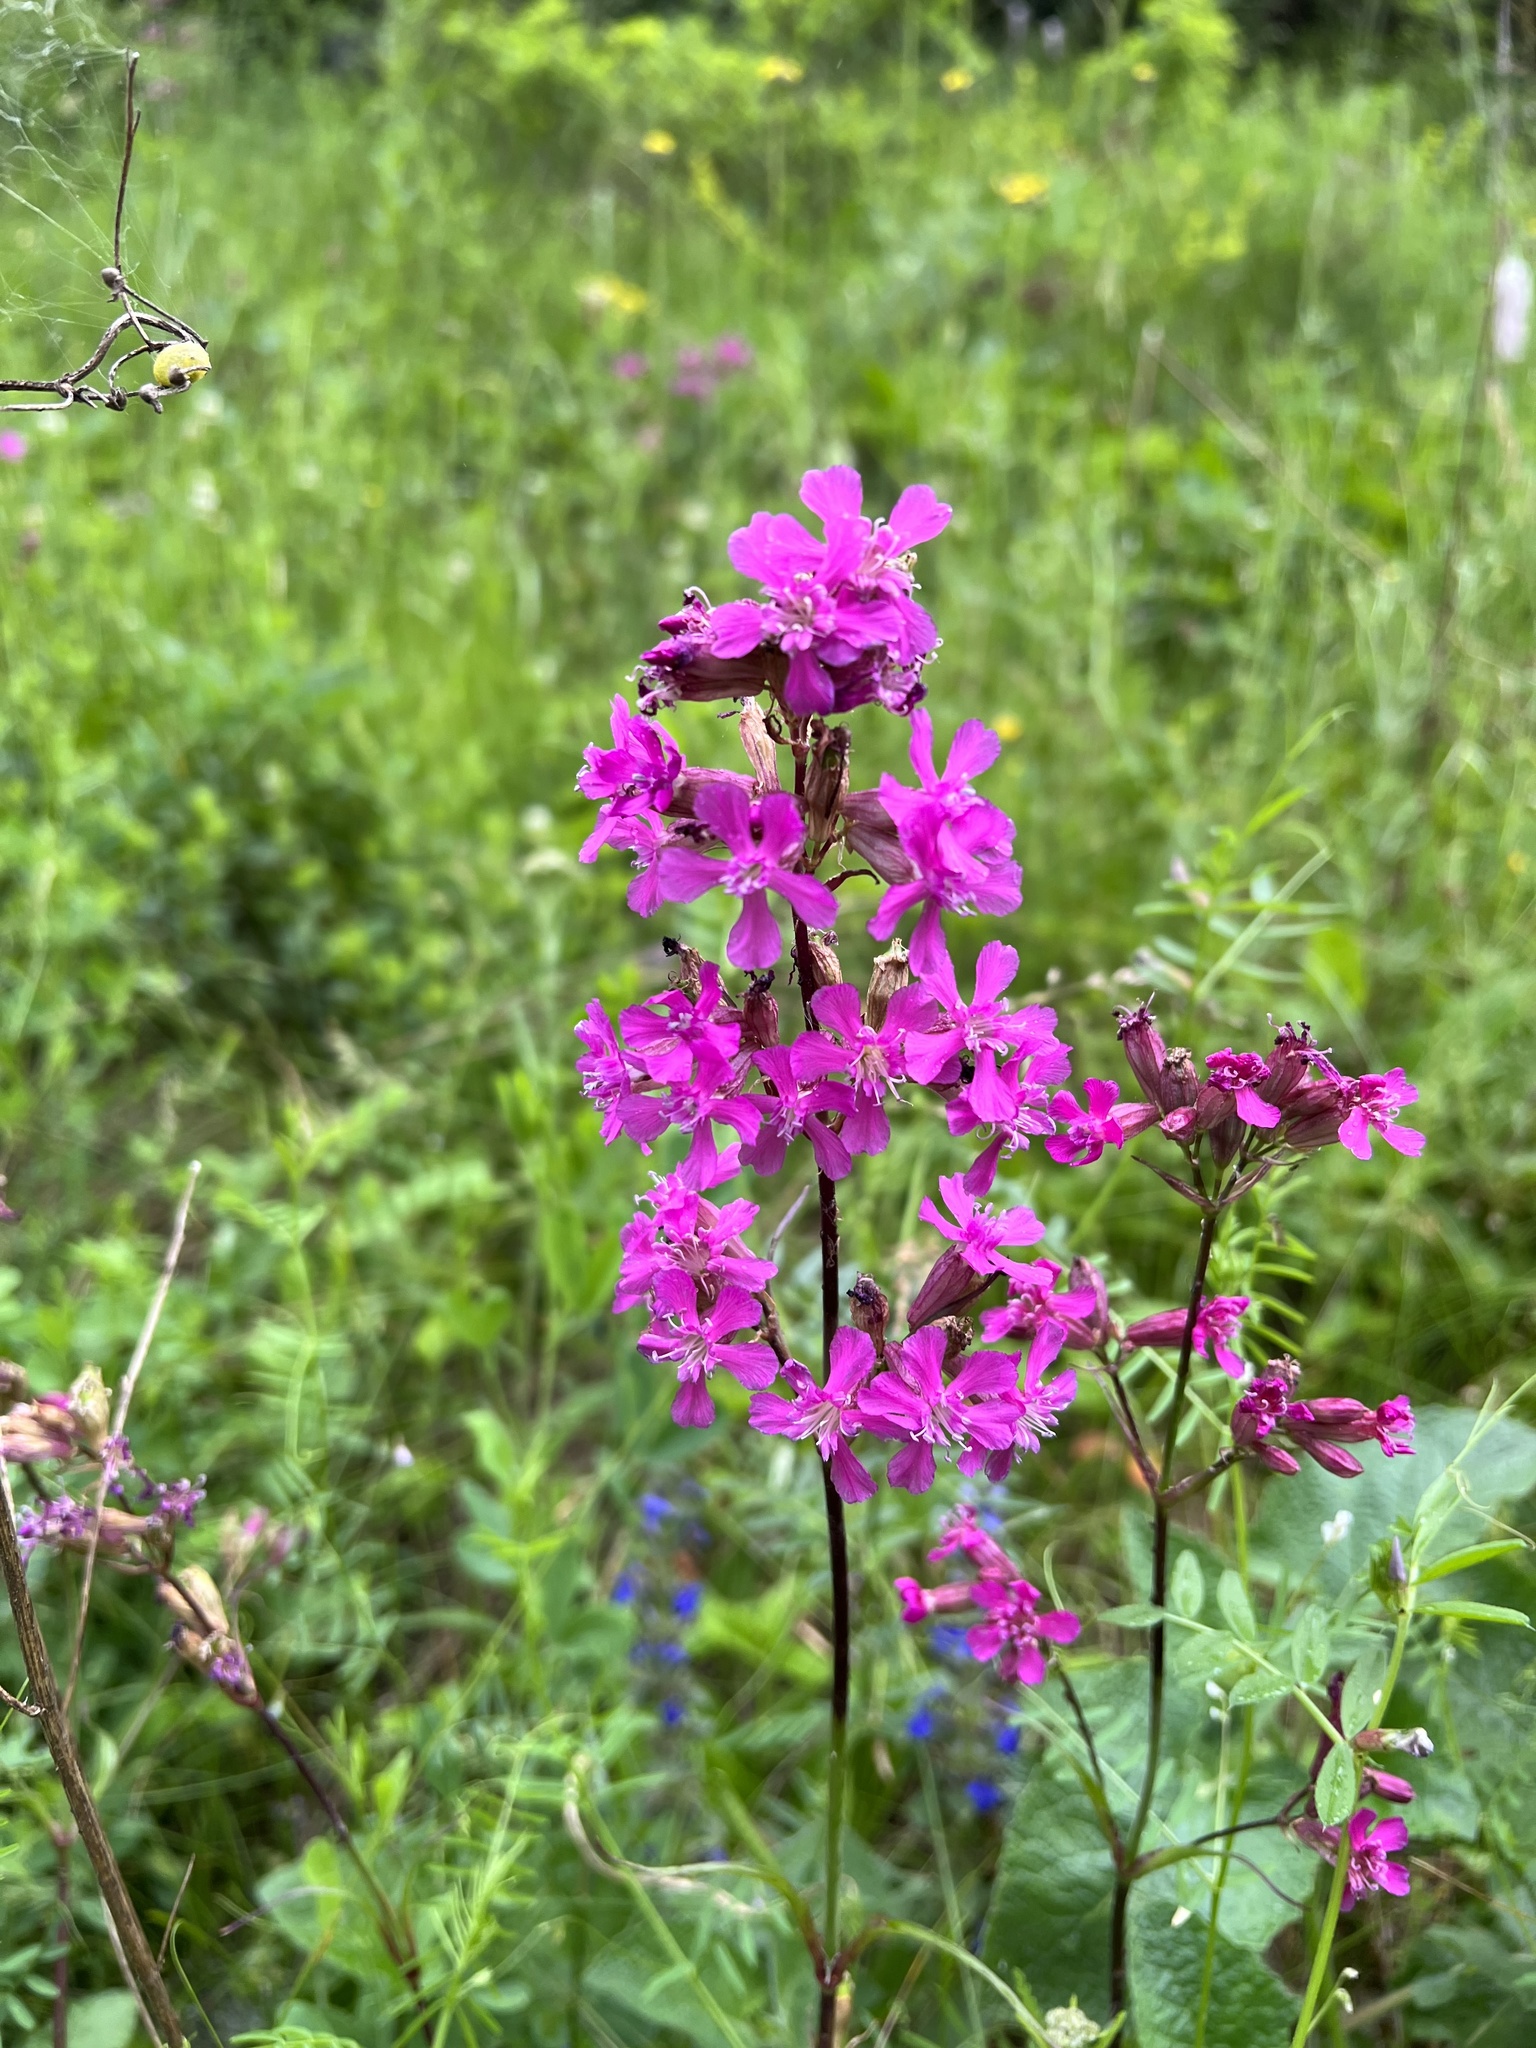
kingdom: Plantae
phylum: Tracheophyta
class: Magnoliopsida
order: Caryophyllales
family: Caryophyllaceae
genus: Viscaria
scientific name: Viscaria vulgaris
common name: Clammy campion
